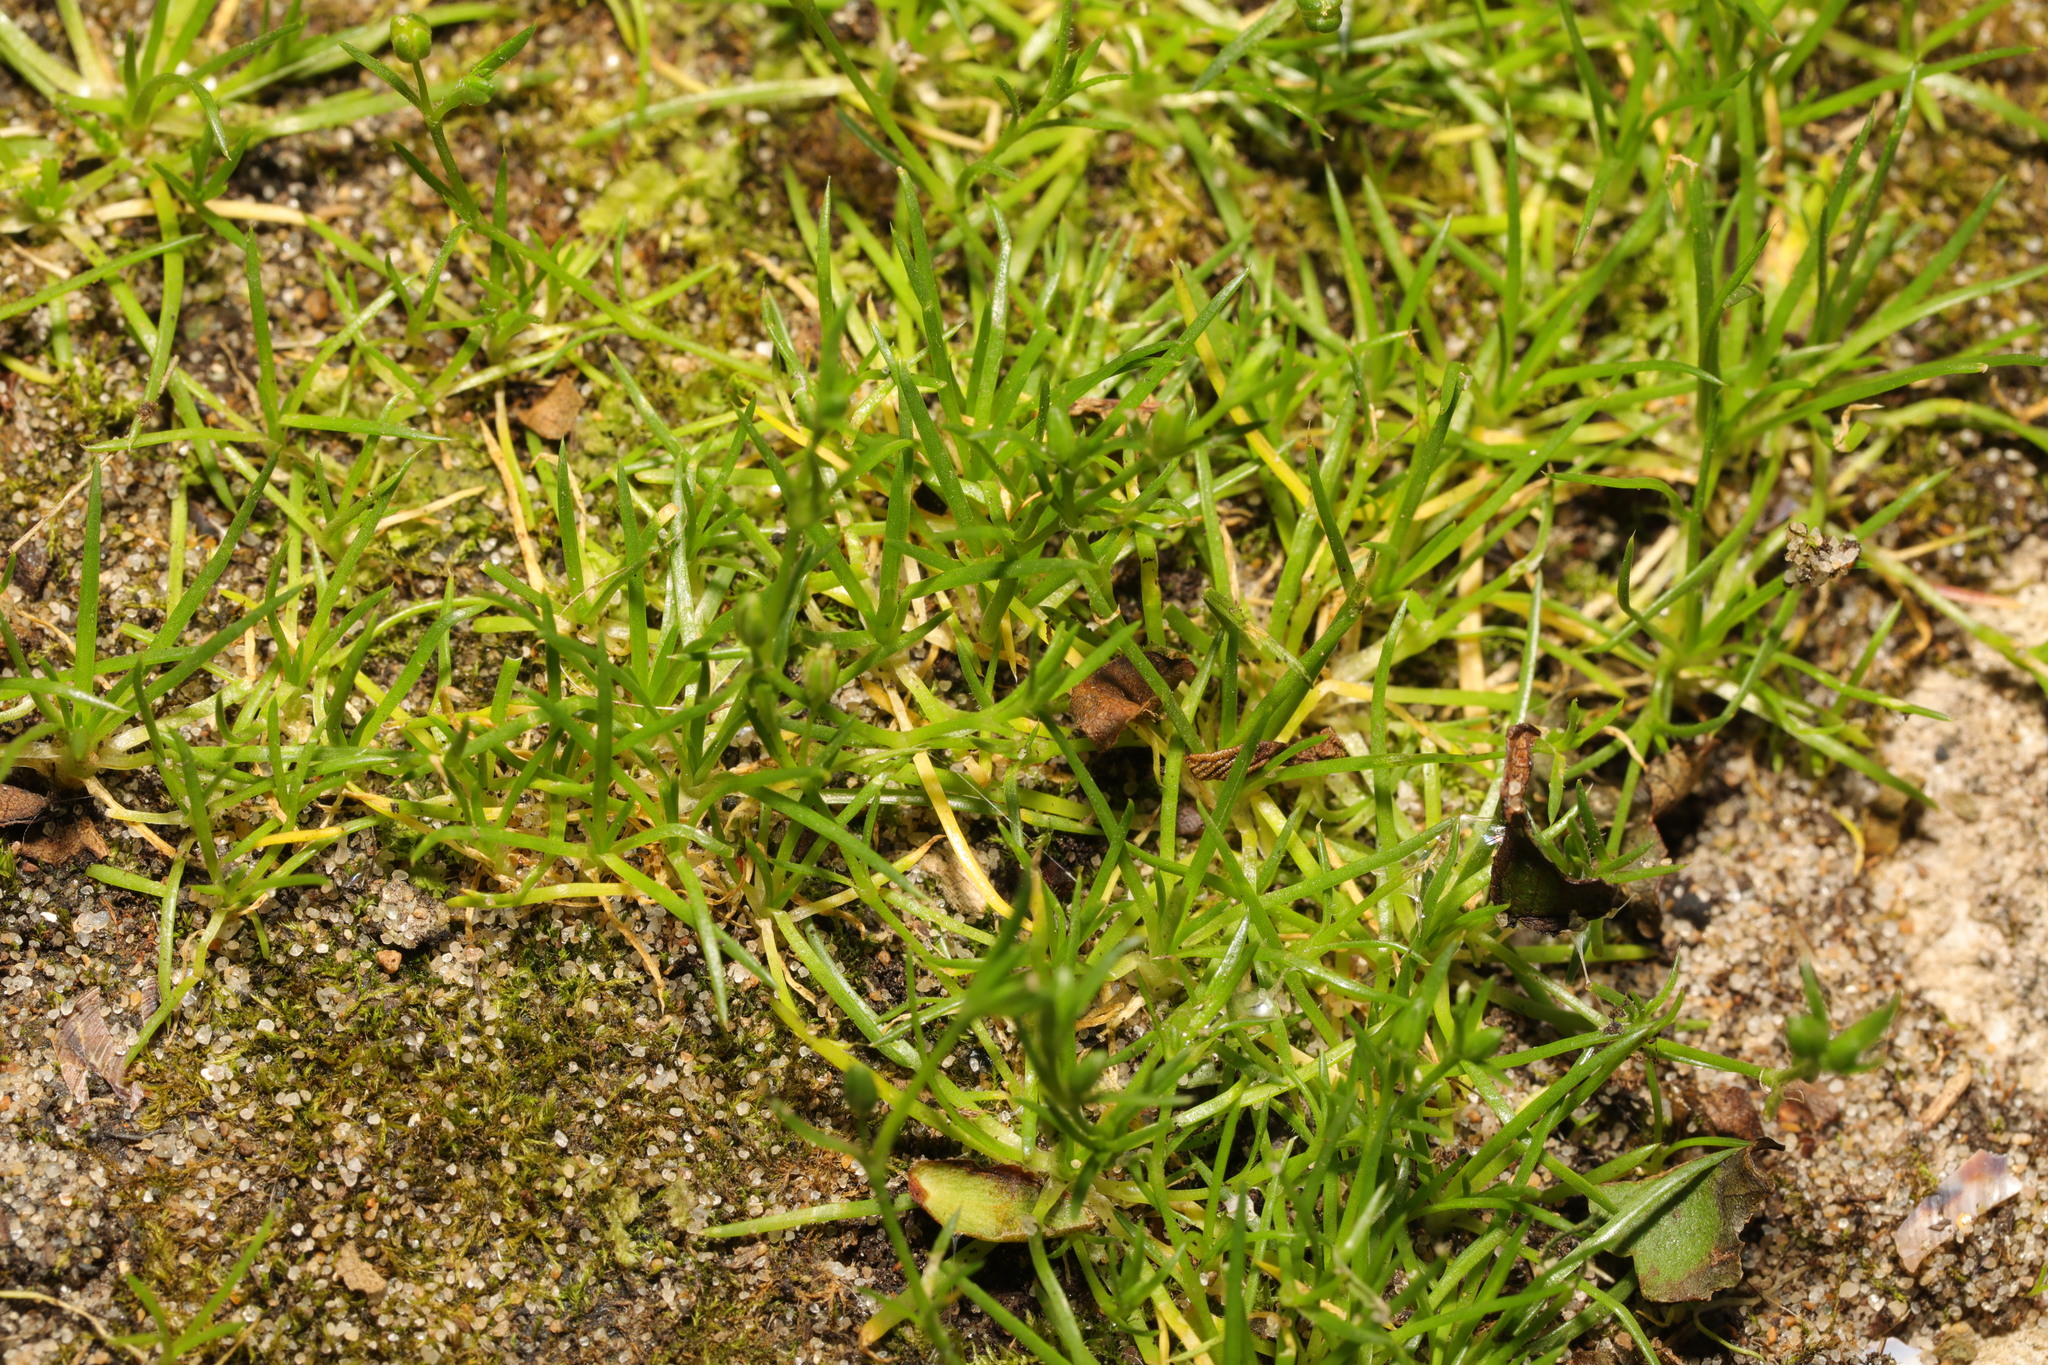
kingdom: Plantae
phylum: Tracheophyta
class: Magnoliopsida
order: Caryophyllales
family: Caryophyllaceae
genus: Sagina
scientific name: Sagina procumbens
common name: Procumbent pearlwort
